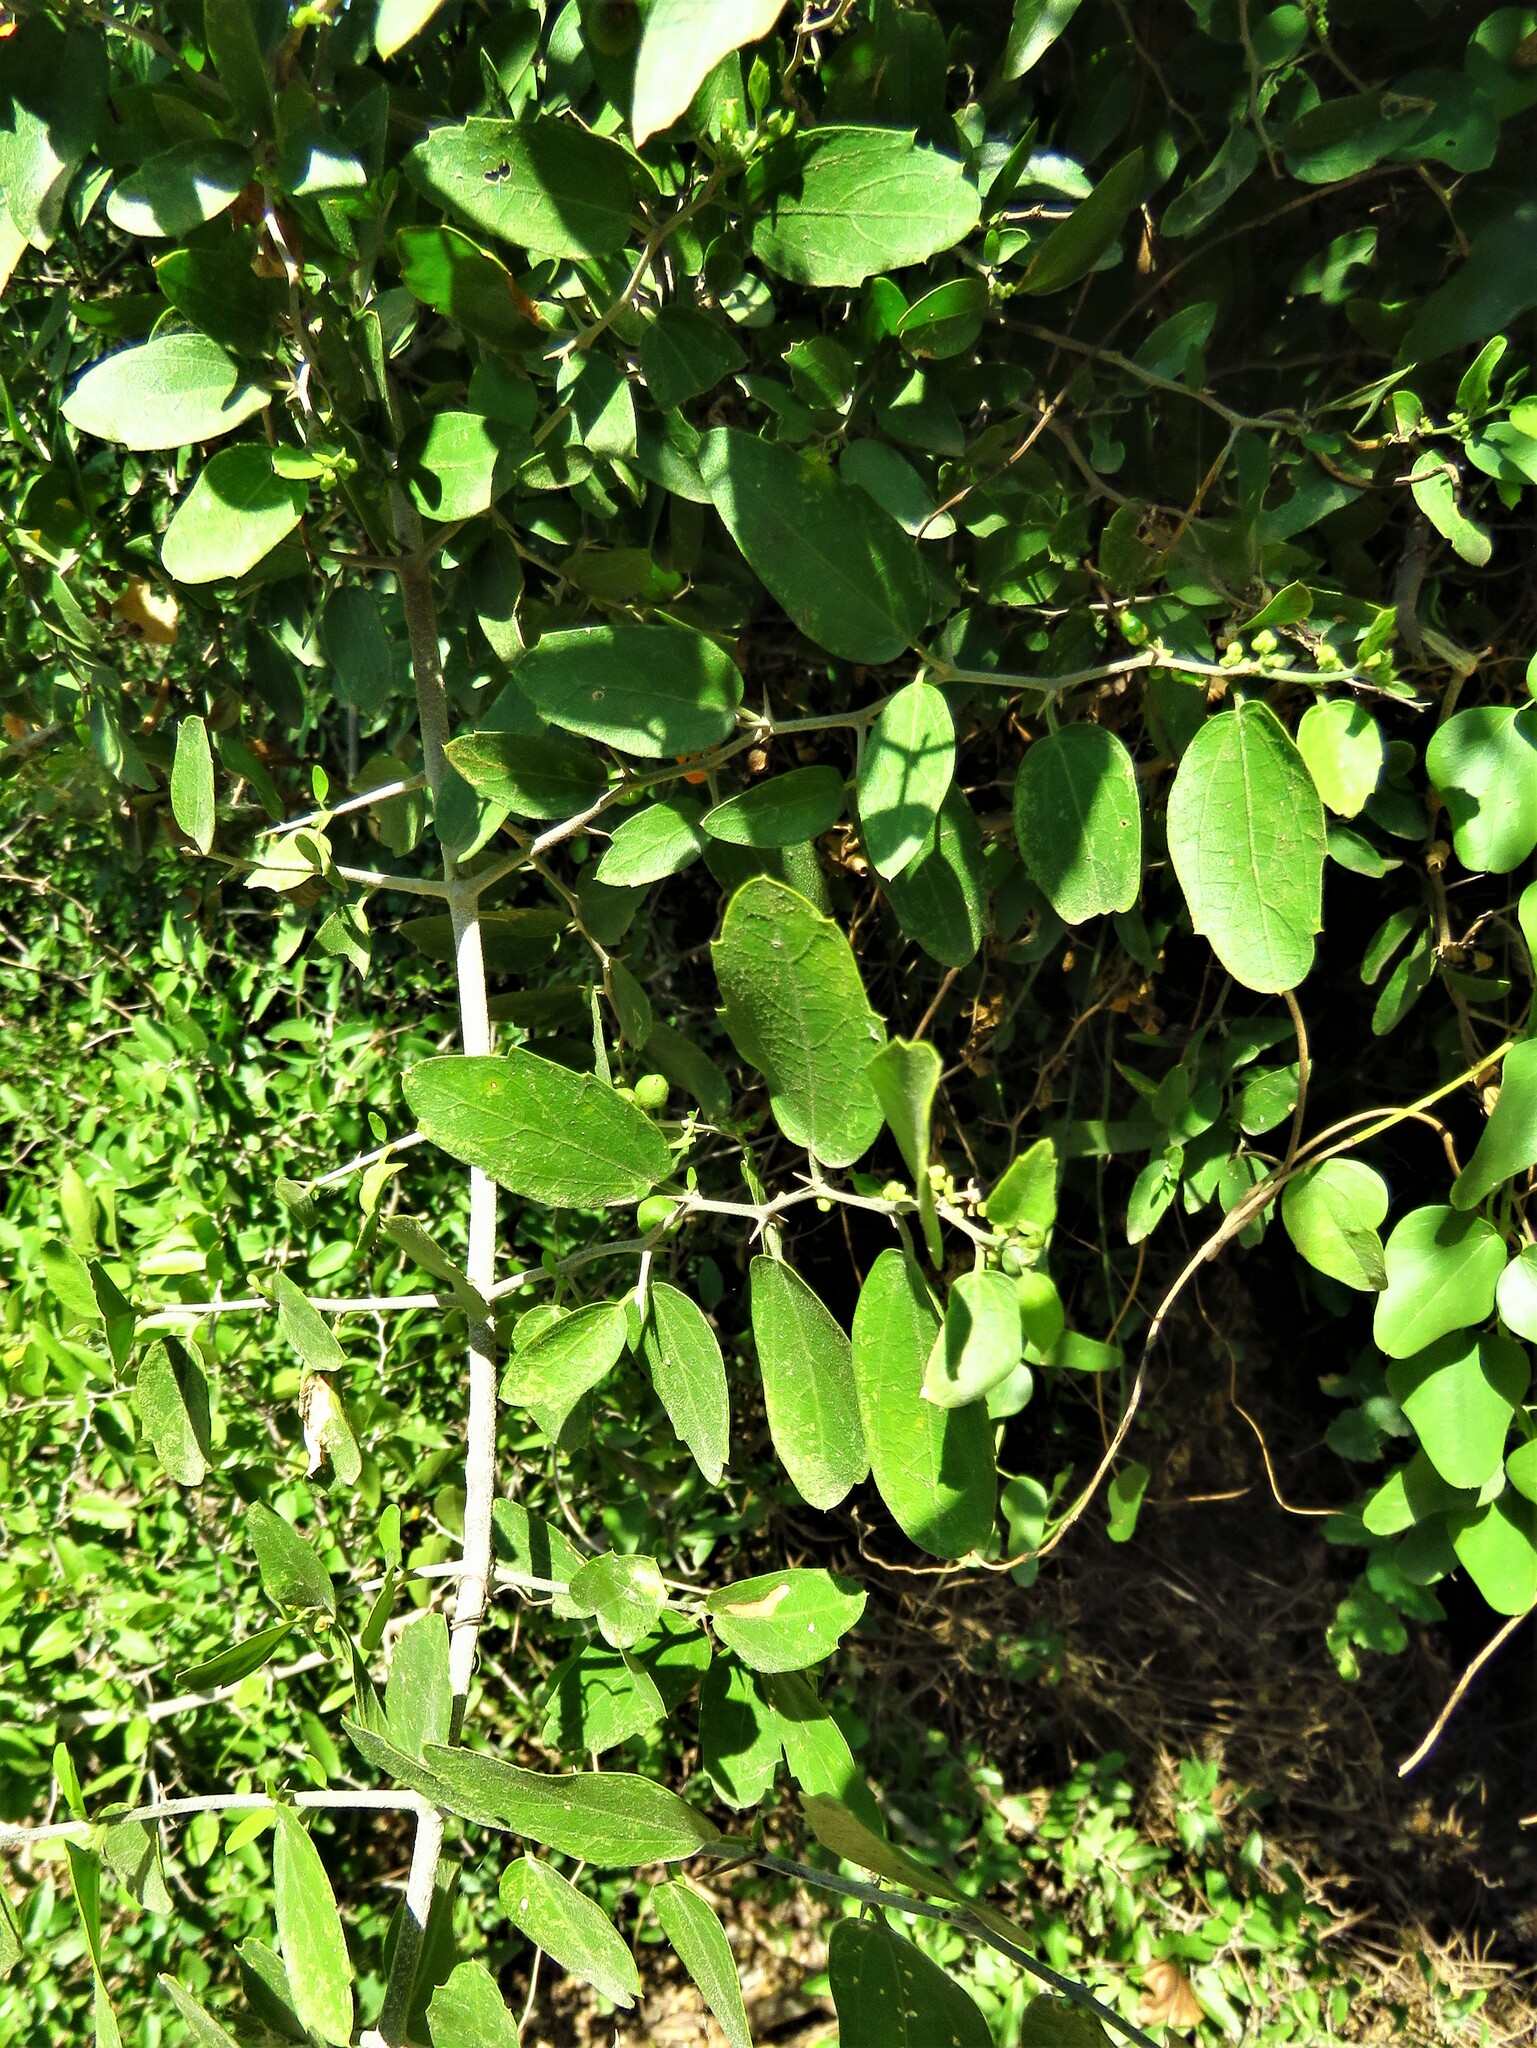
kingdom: Plantae
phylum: Tracheophyta
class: Magnoliopsida
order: Rosales
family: Cannabaceae
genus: Celtis
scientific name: Celtis pallida
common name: Desert hackberry
